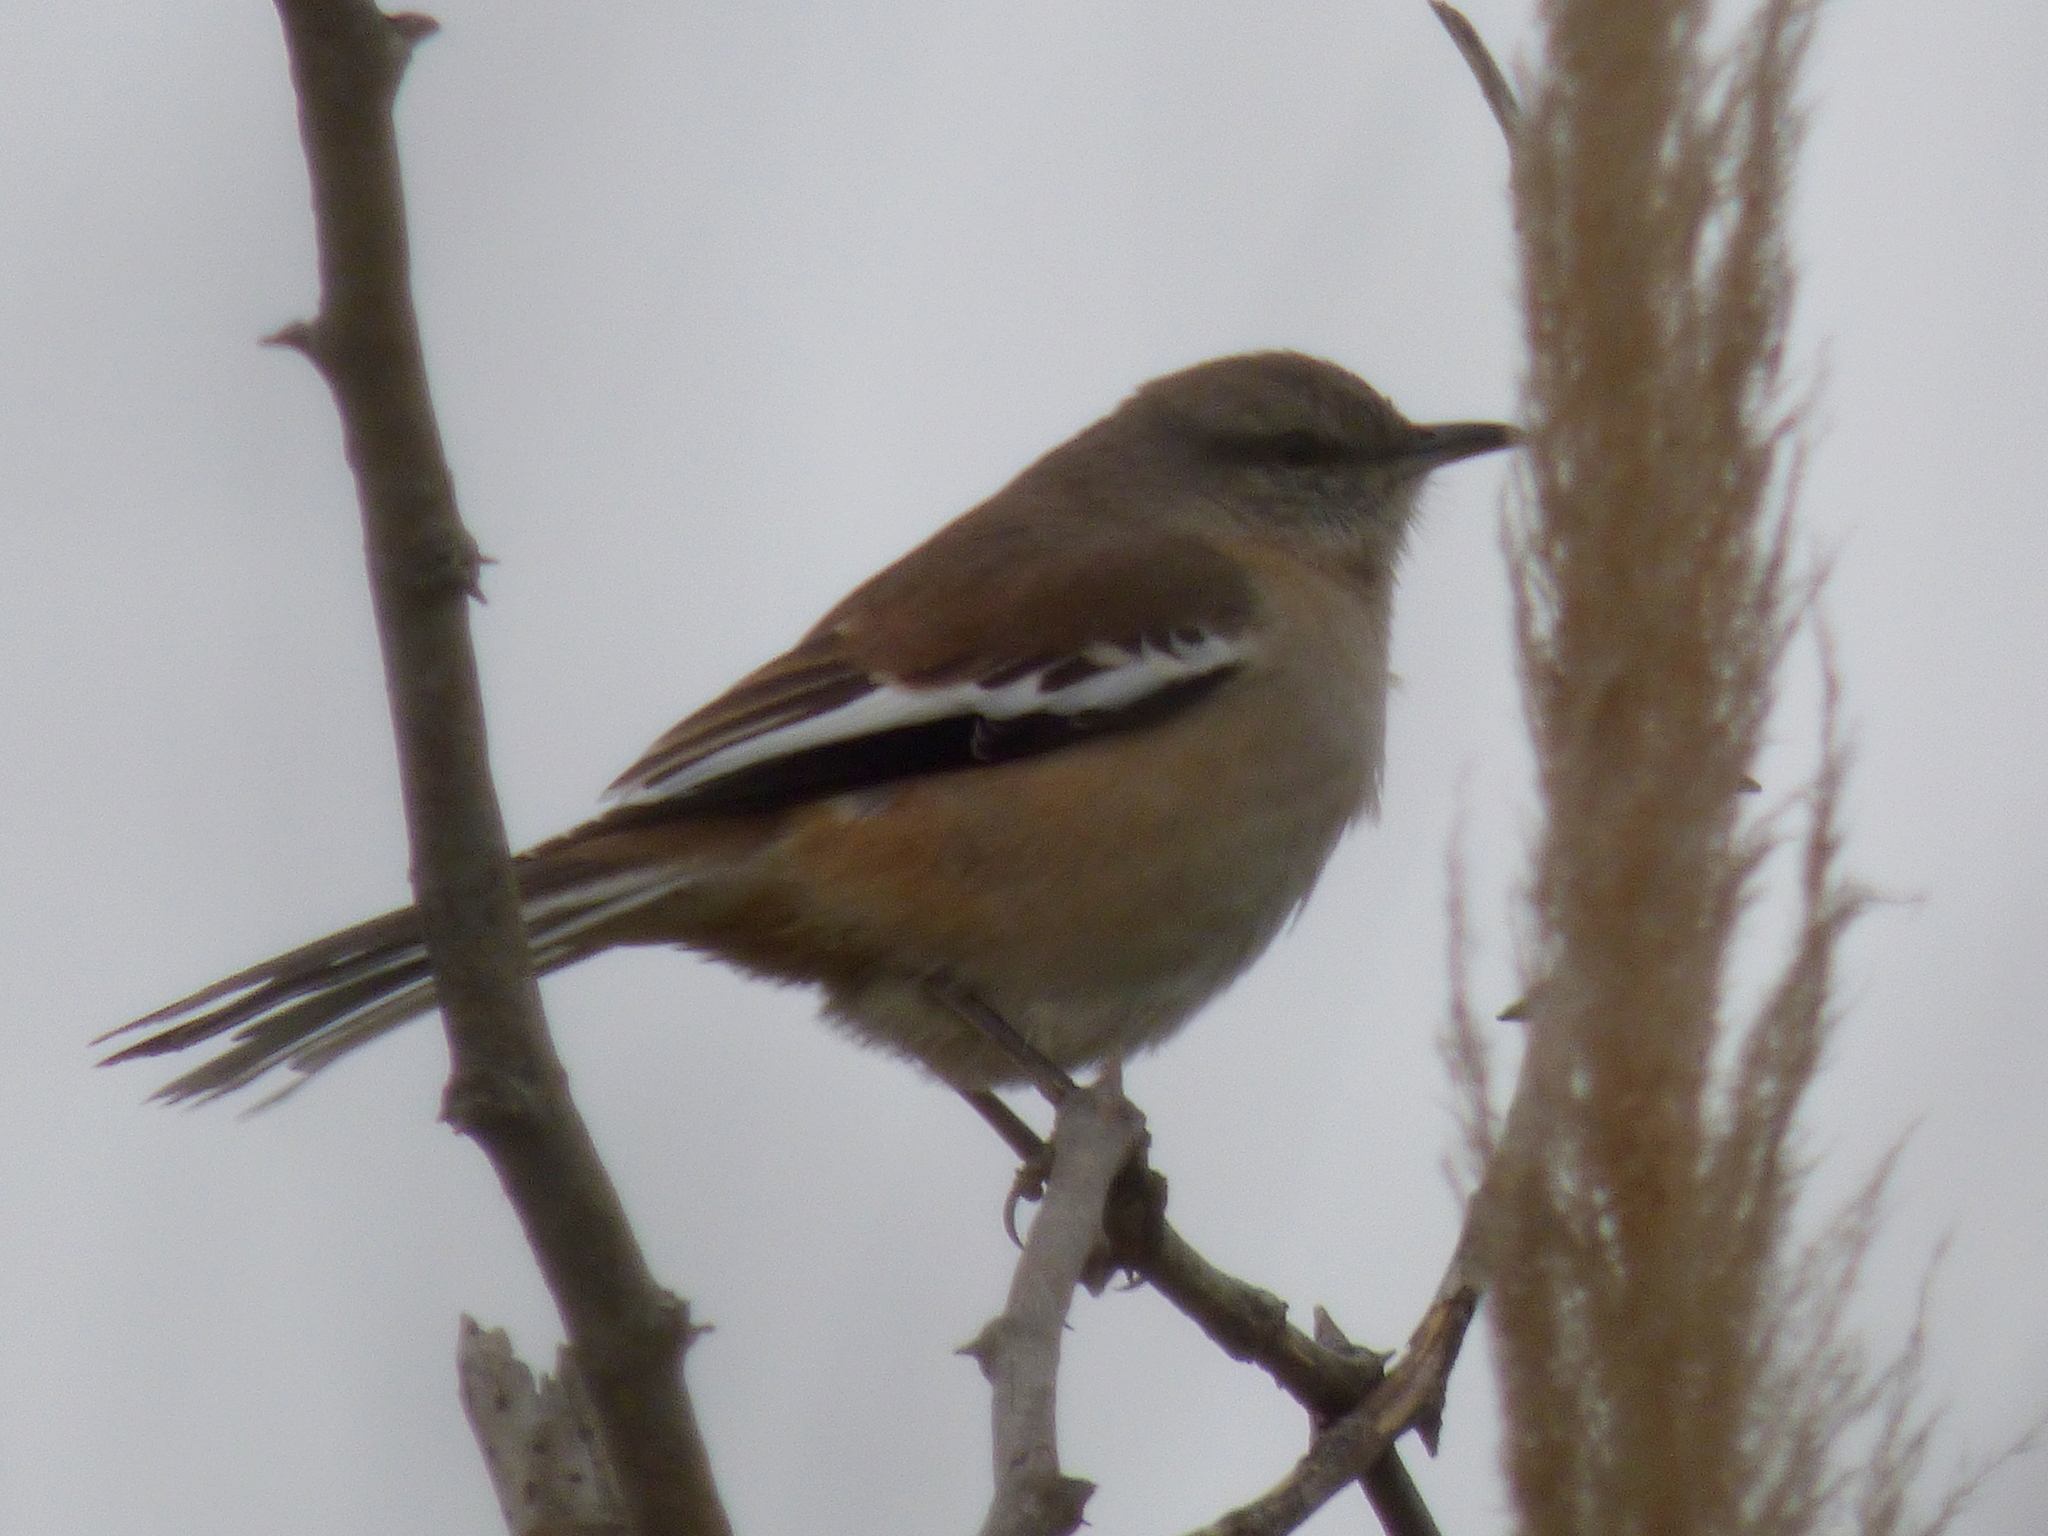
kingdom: Animalia
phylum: Chordata
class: Aves
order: Passeriformes
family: Mimidae
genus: Mimus
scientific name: Mimus triurus
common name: White-banded mockingbird
